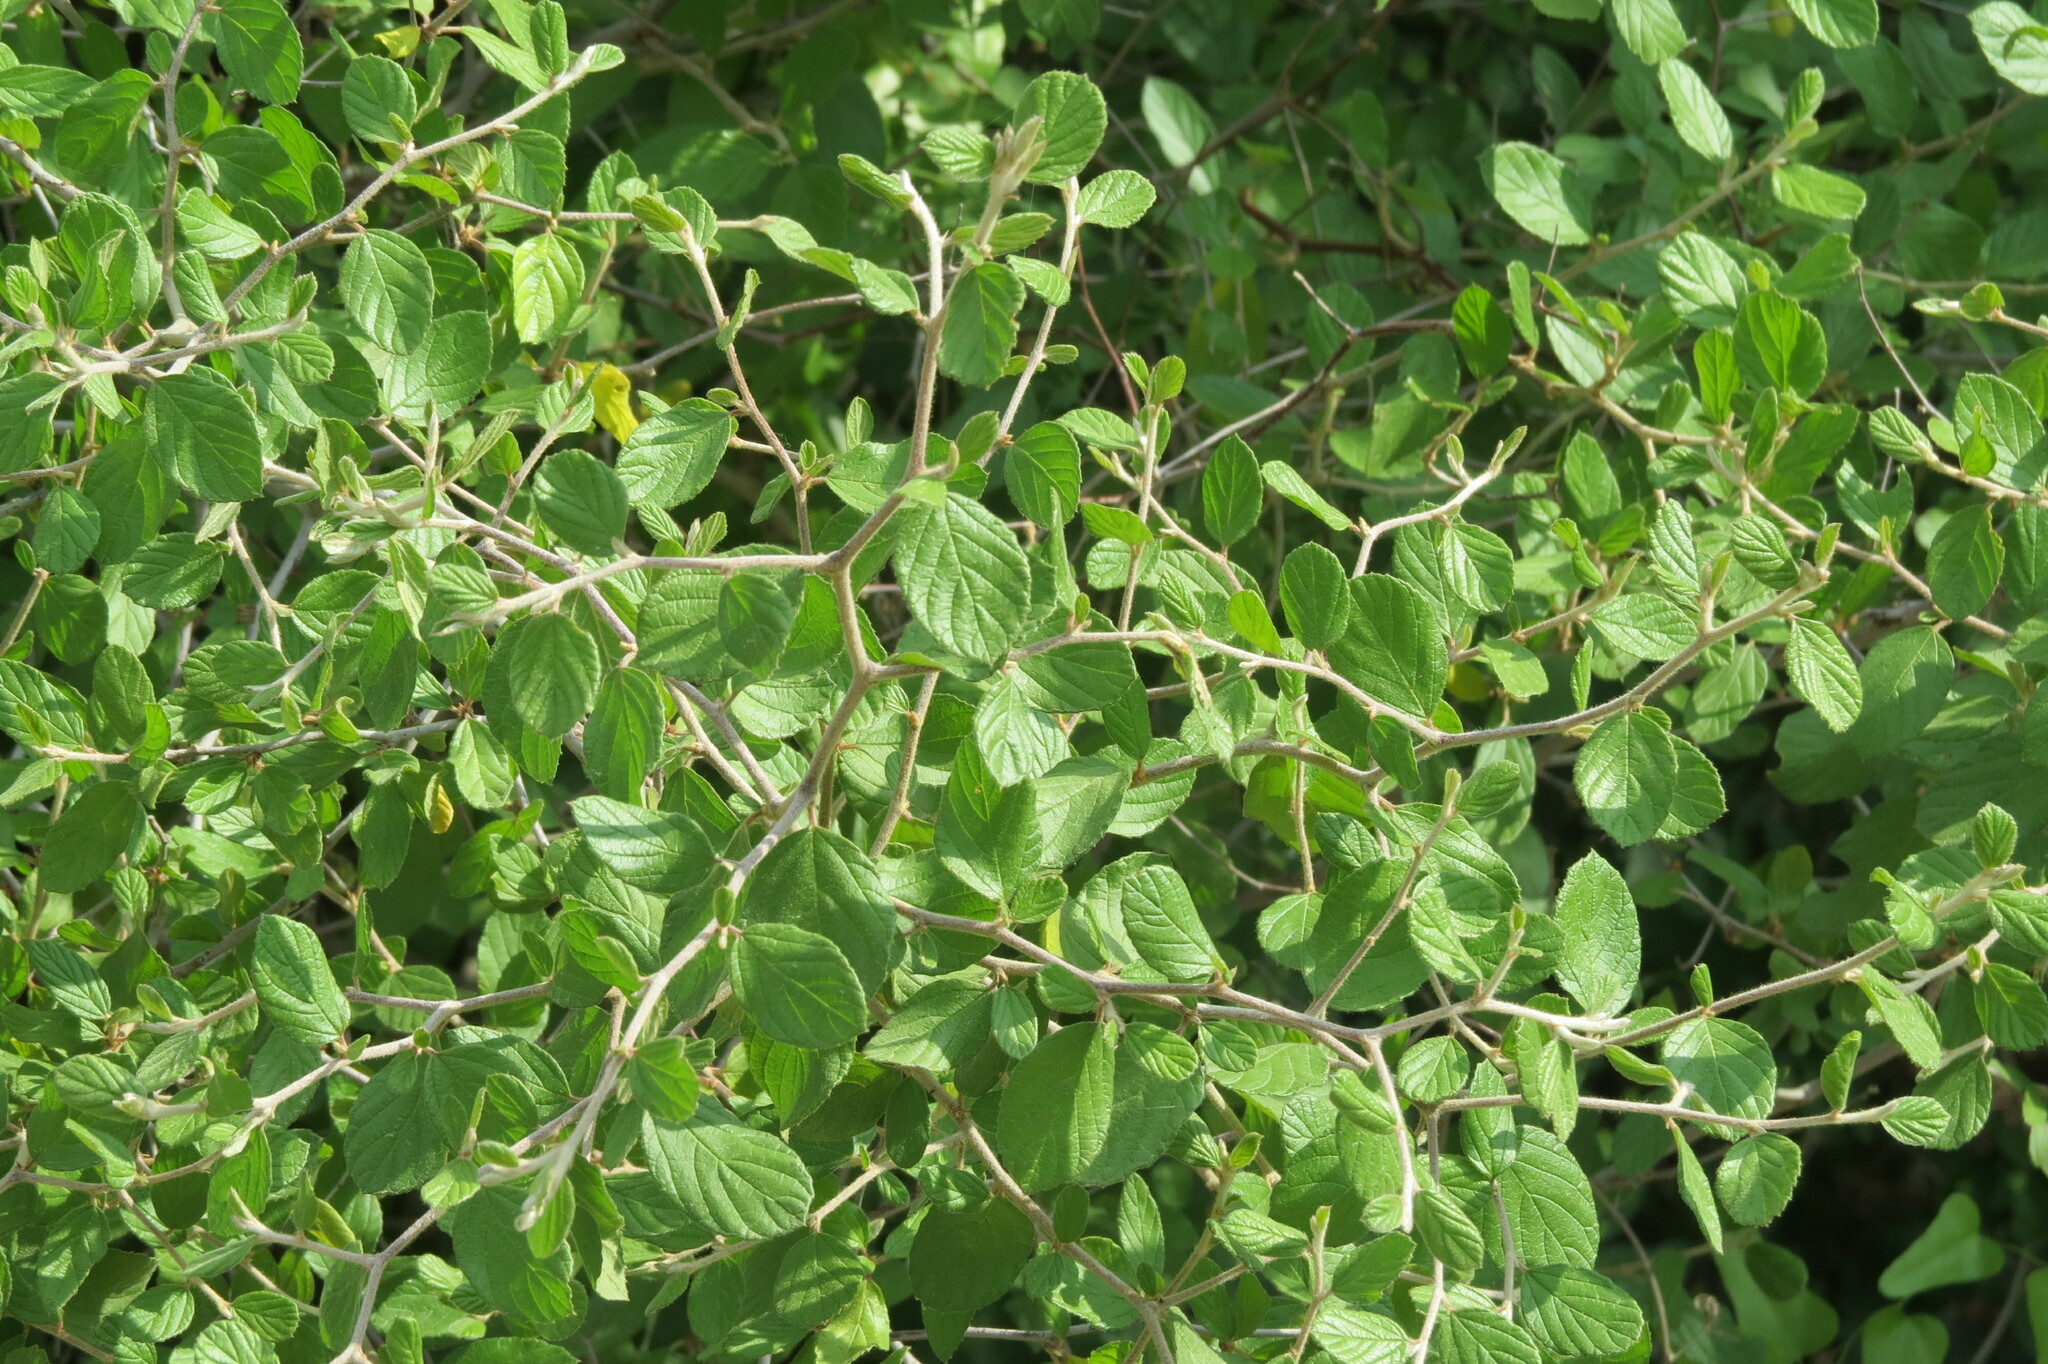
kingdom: Plantae
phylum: Tracheophyta
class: Magnoliopsida
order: Rosales
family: Rhamnaceae
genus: Colubrina
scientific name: Colubrina texensis
